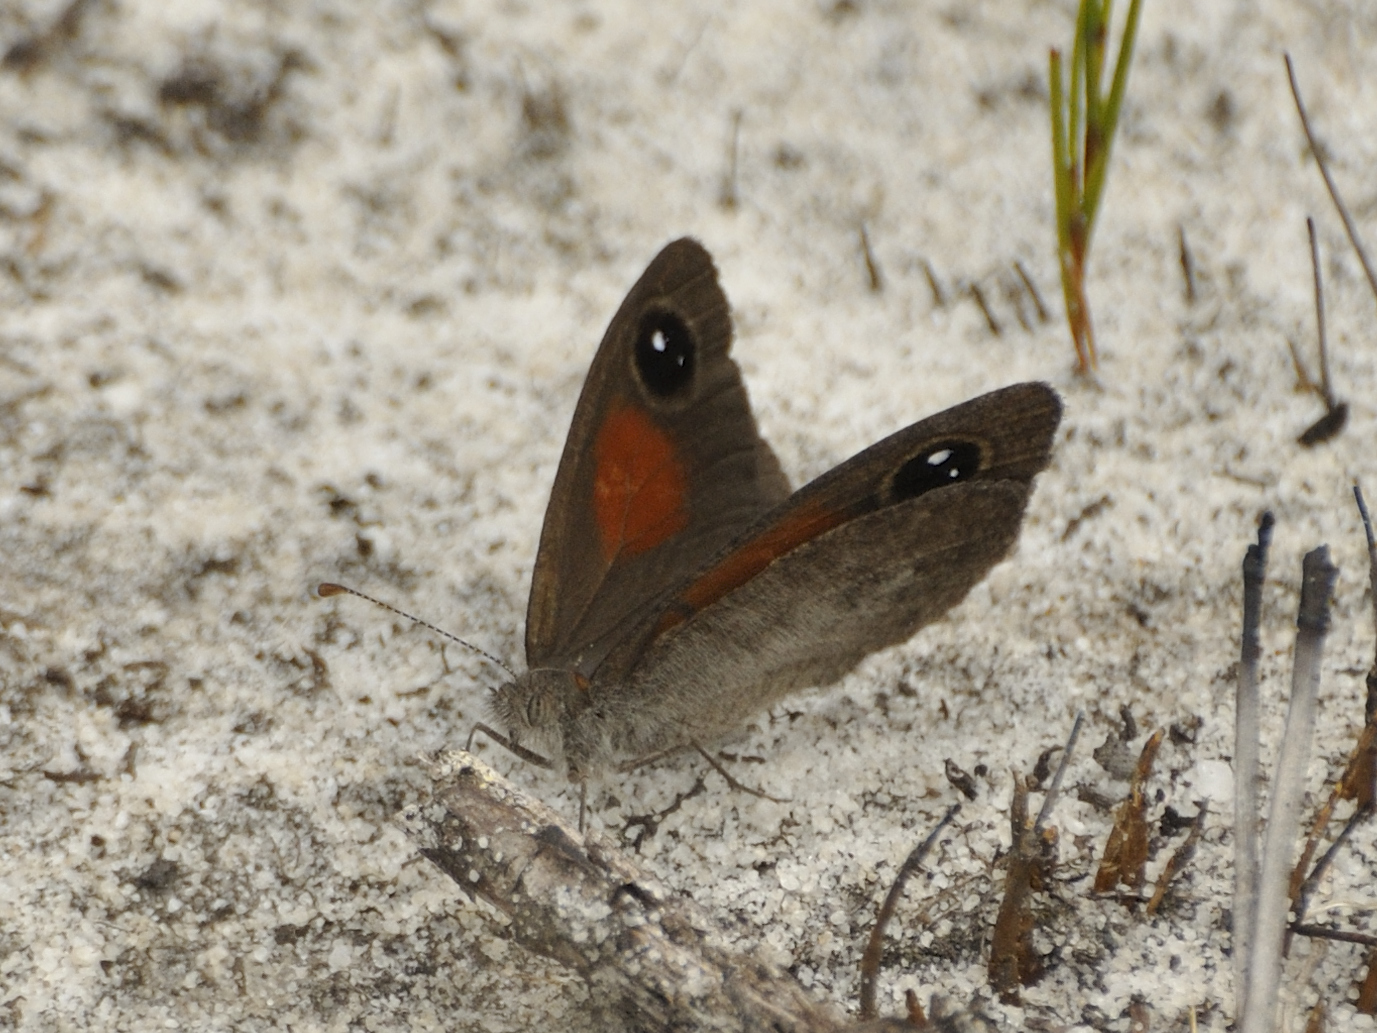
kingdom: Animalia
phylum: Arthropoda
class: Insecta
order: Lepidoptera
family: Nymphalidae
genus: Stygionympha
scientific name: Stygionympha vigilans
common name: Western hillside brown
